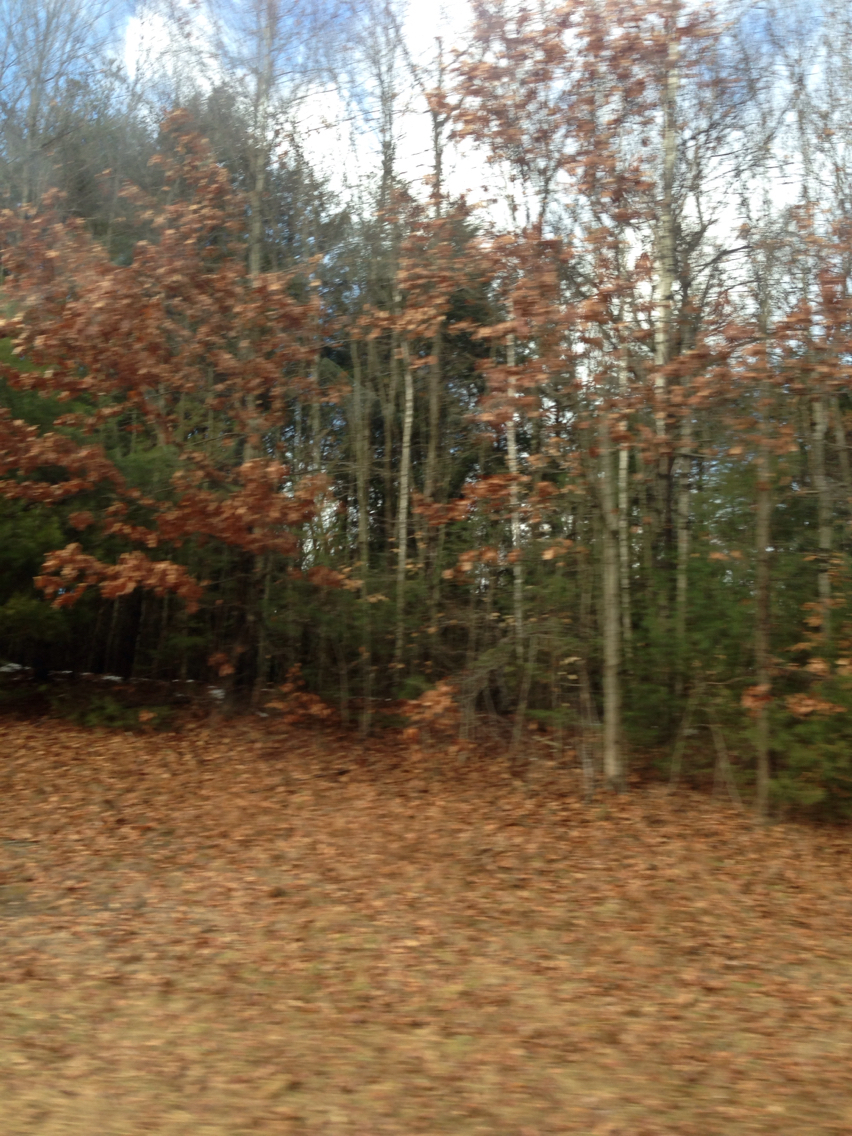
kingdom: Plantae
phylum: Tracheophyta
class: Magnoliopsida
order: Fagales
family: Fagaceae
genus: Quercus
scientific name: Quercus rubra
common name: Red oak
